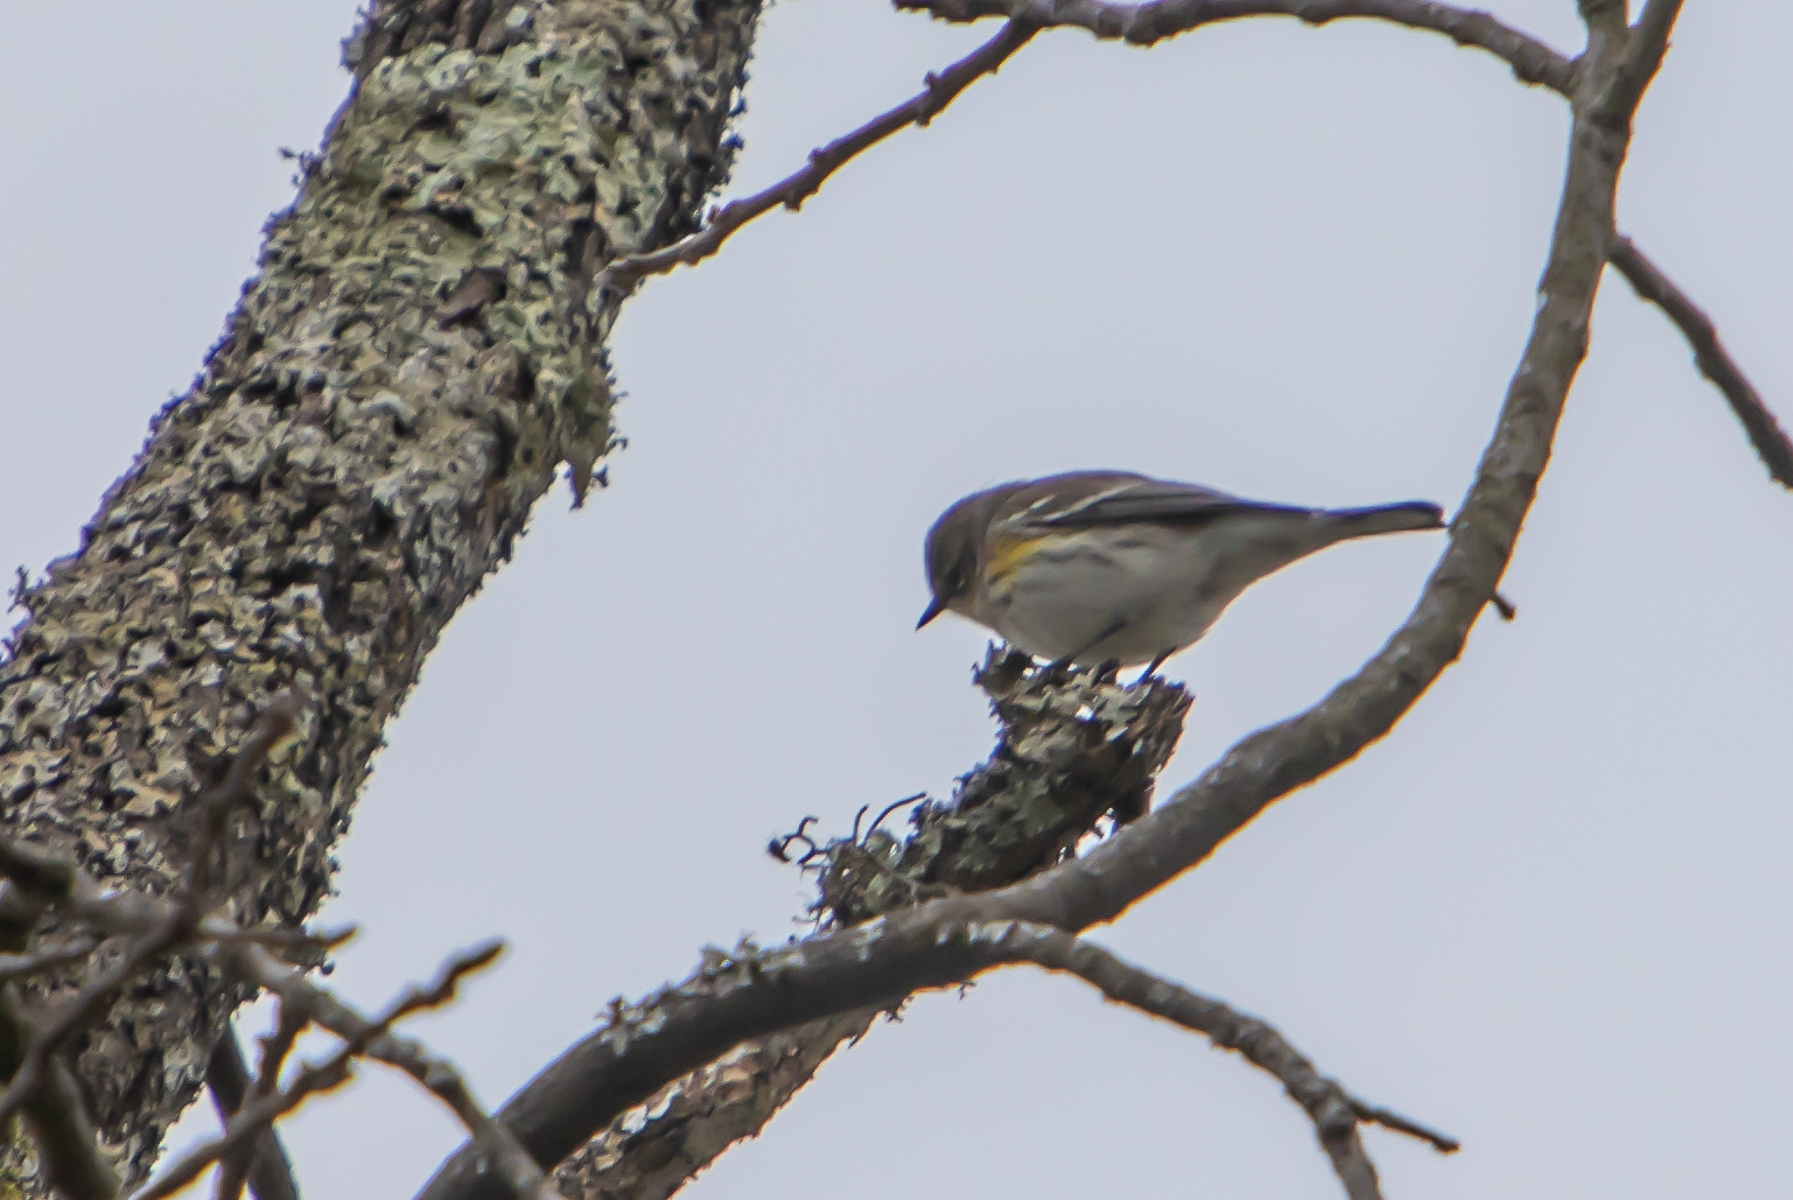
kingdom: Animalia
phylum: Chordata
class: Aves
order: Passeriformes
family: Parulidae
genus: Setophaga
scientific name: Setophaga coronata
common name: Myrtle warbler
